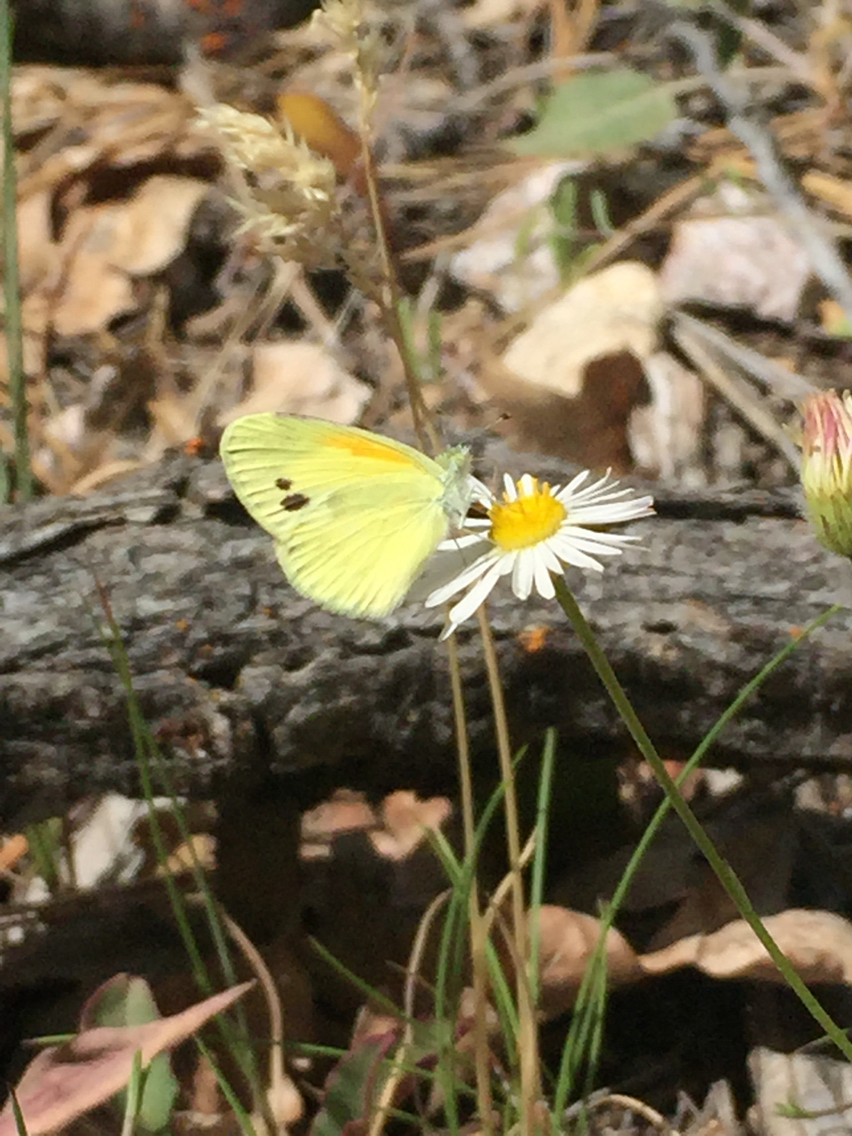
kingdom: Animalia
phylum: Arthropoda
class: Insecta
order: Lepidoptera
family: Pieridae
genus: Nathalis
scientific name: Nathalis iole
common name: Dainty sulphur
